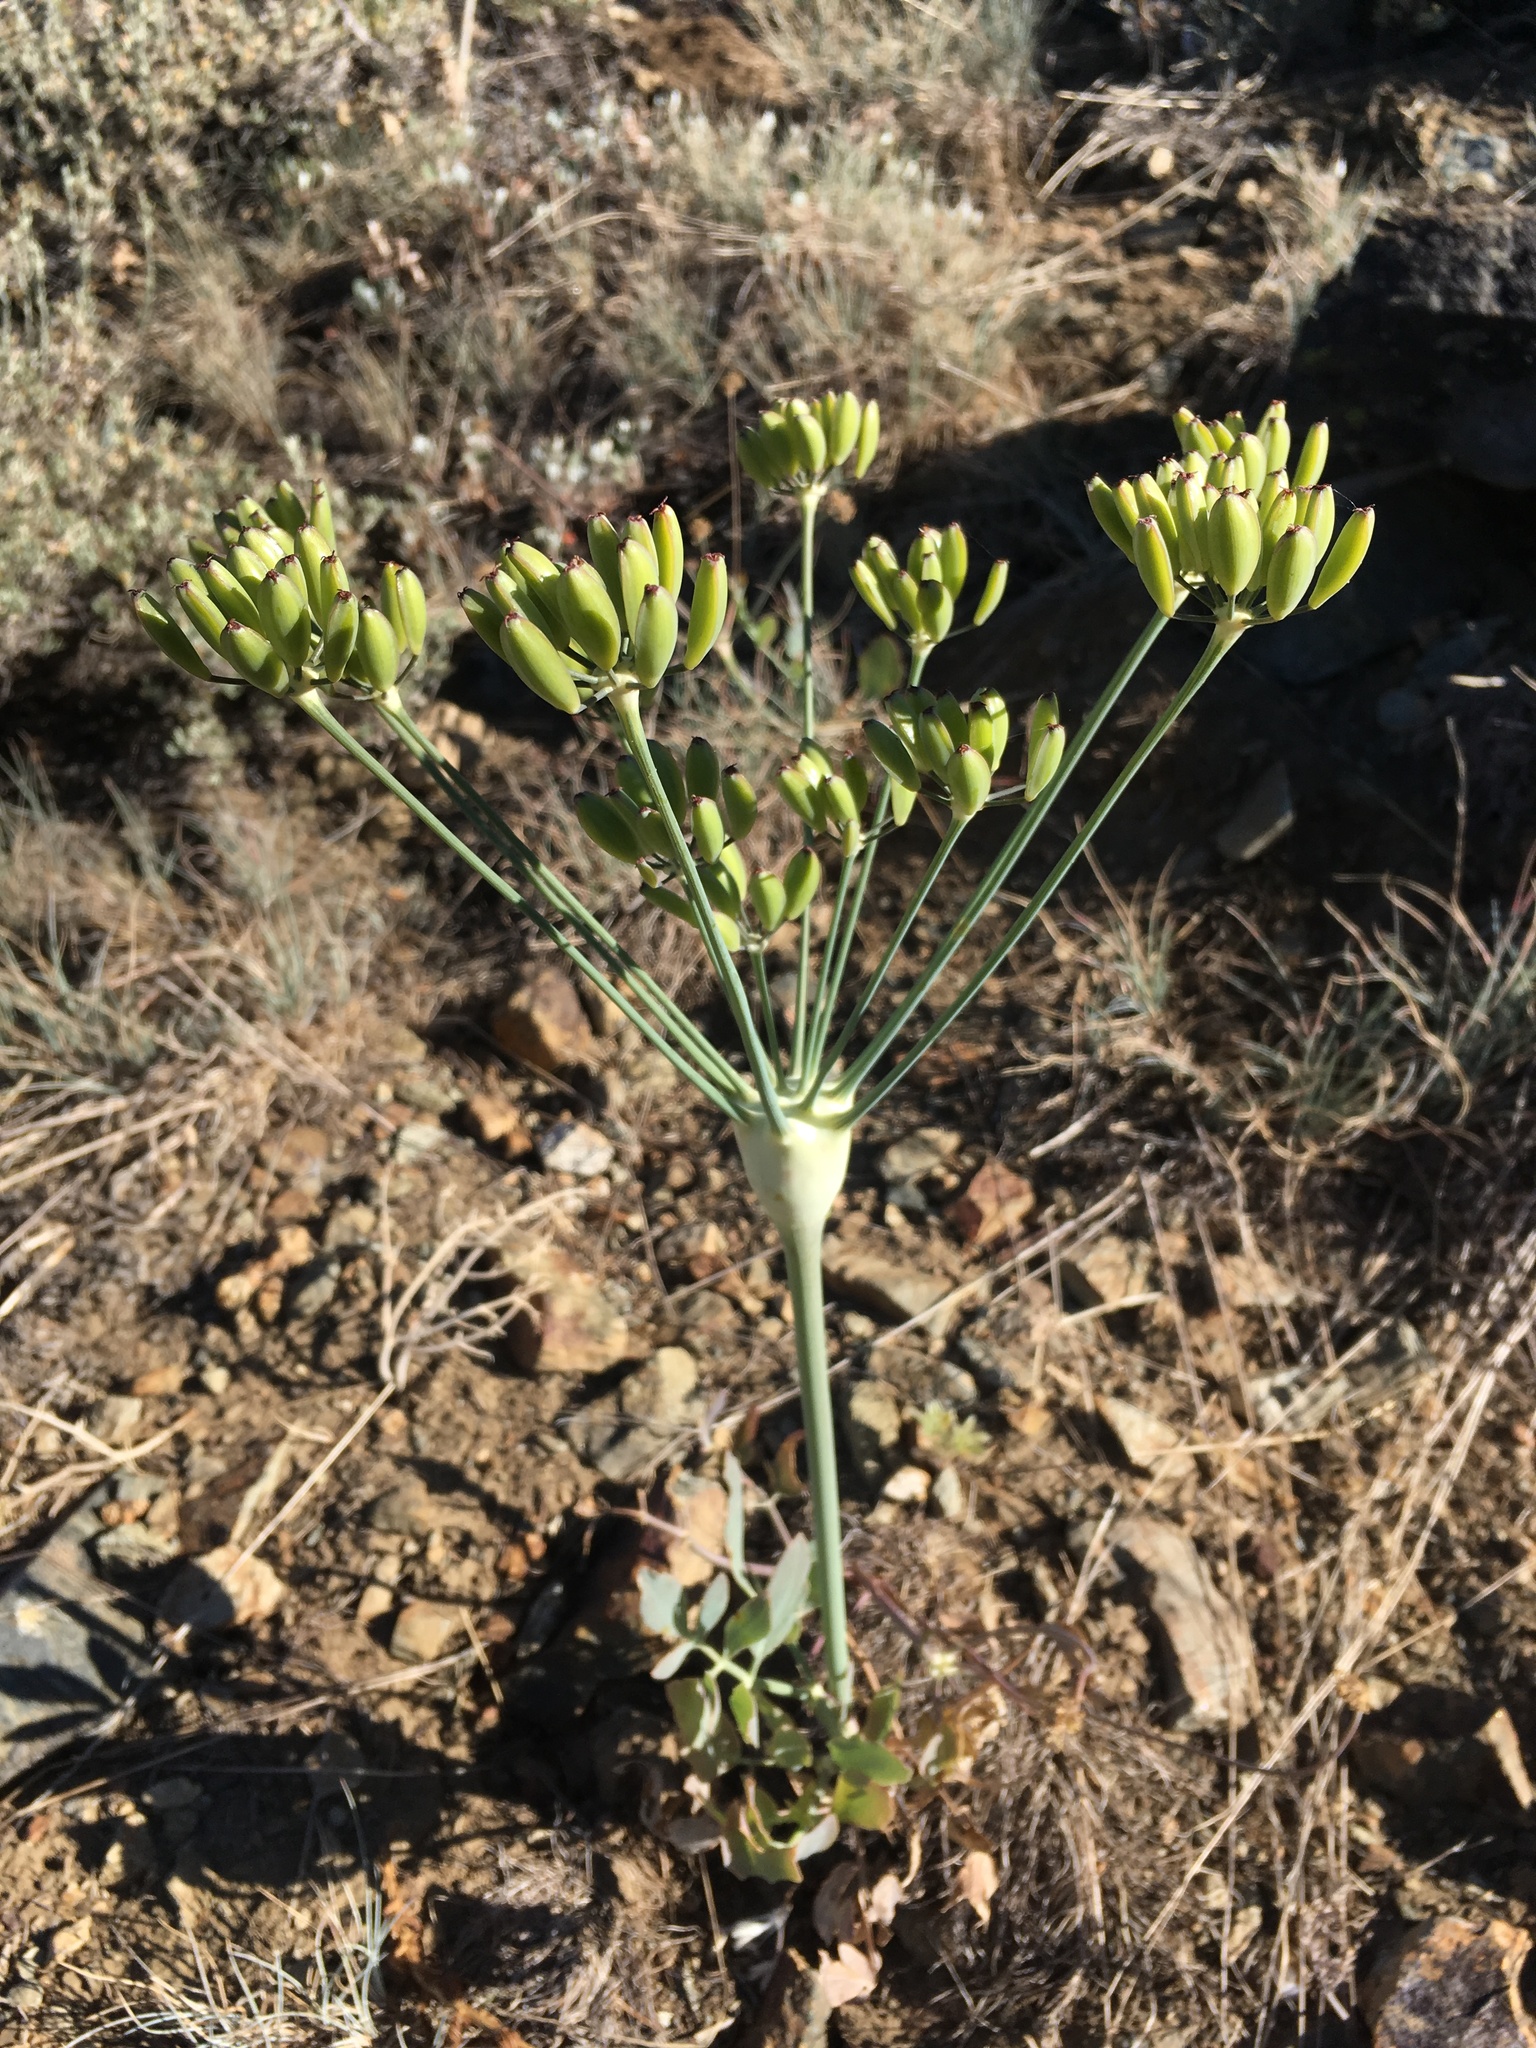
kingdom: Plantae
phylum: Tracheophyta
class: Magnoliopsida
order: Apiales
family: Apiaceae
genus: Lomatium
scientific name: Lomatium nudicaule
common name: Pestle lomatium
